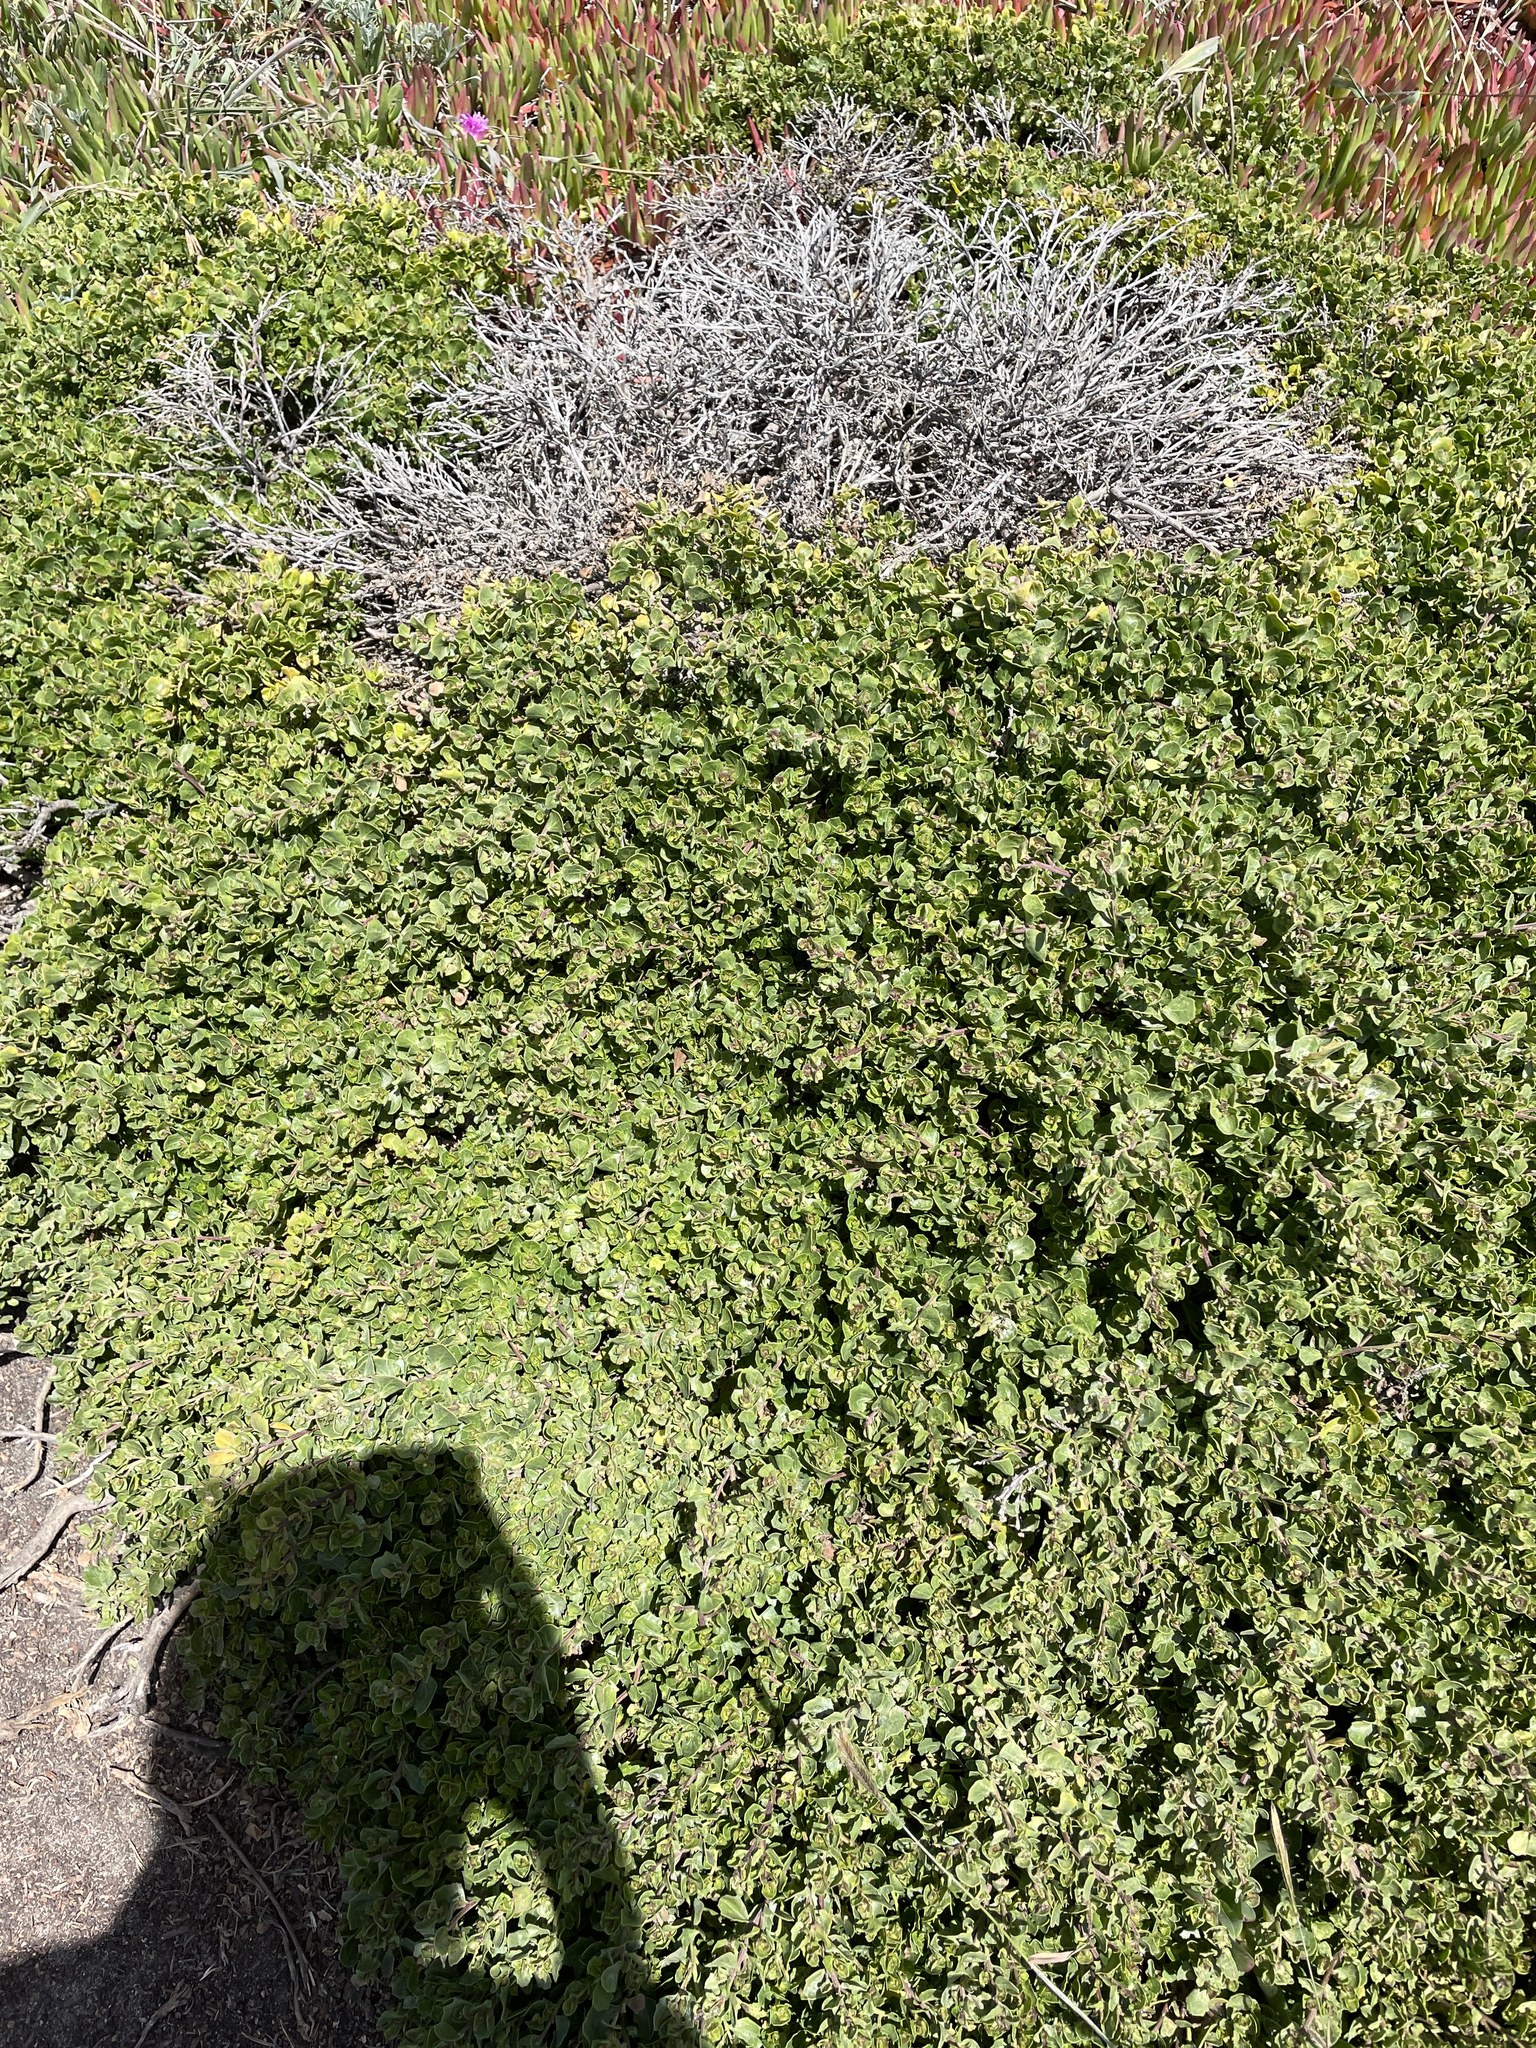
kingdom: Plantae
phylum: Tracheophyta
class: Magnoliopsida
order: Asterales
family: Asteraceae
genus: Baccharis
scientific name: Baccharis pilularis
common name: Coyotebrush
